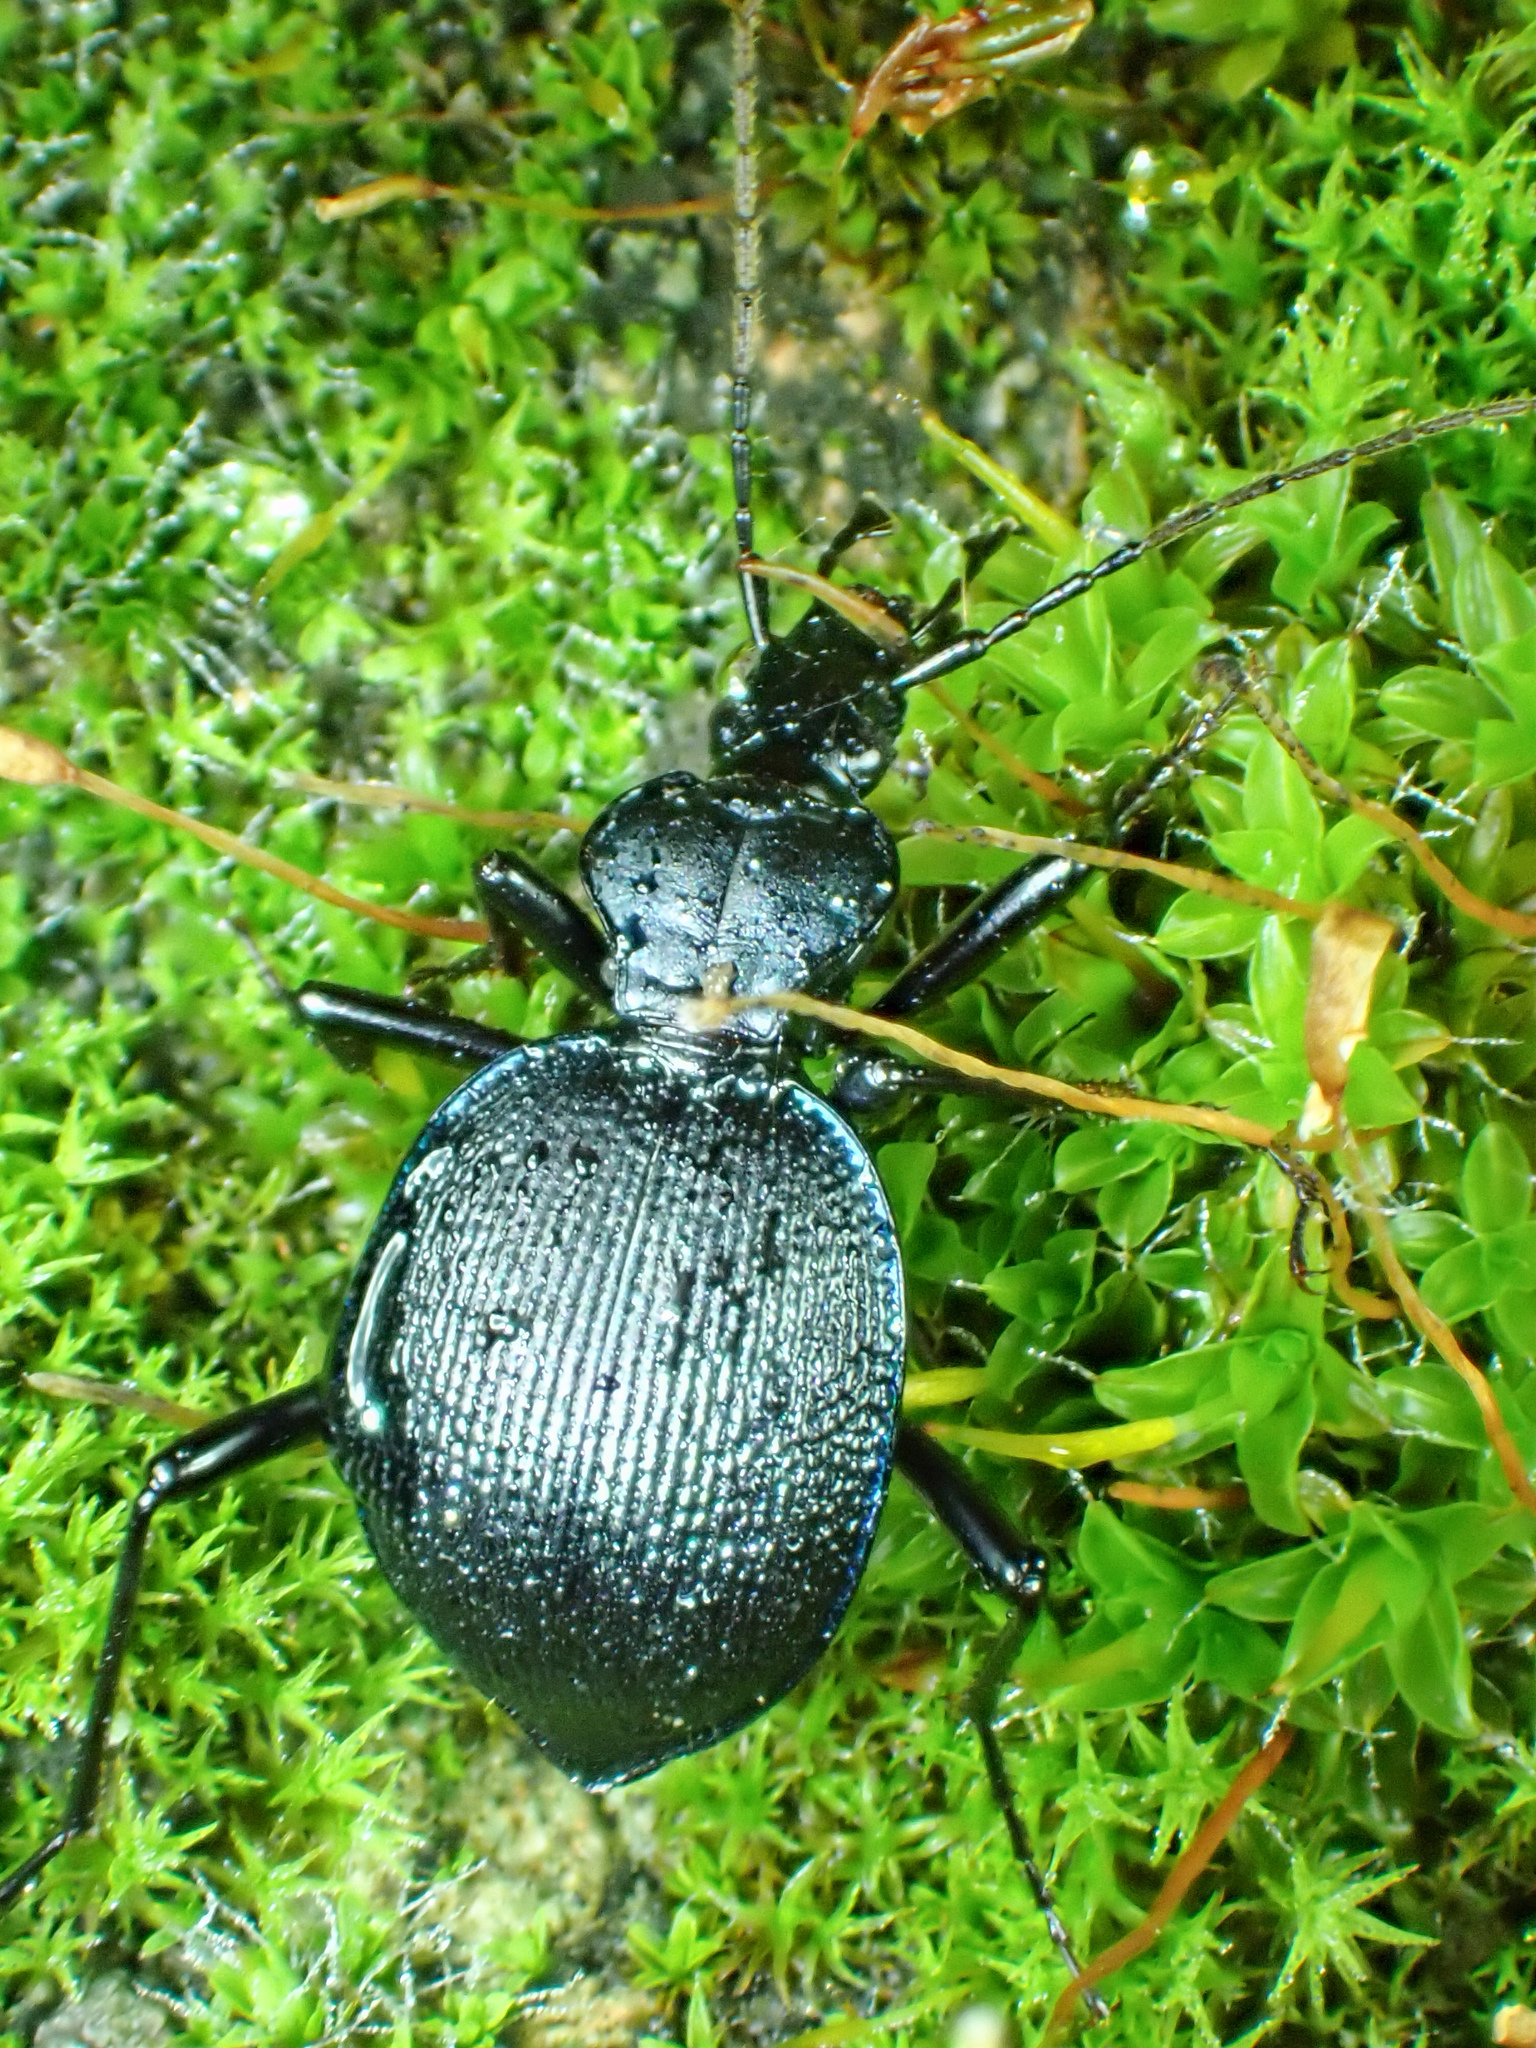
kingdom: Animalia
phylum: Arthropoda
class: Insecta
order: Coleoptera
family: Carabidae
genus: Scaphinotus
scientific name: Scaphinotus
